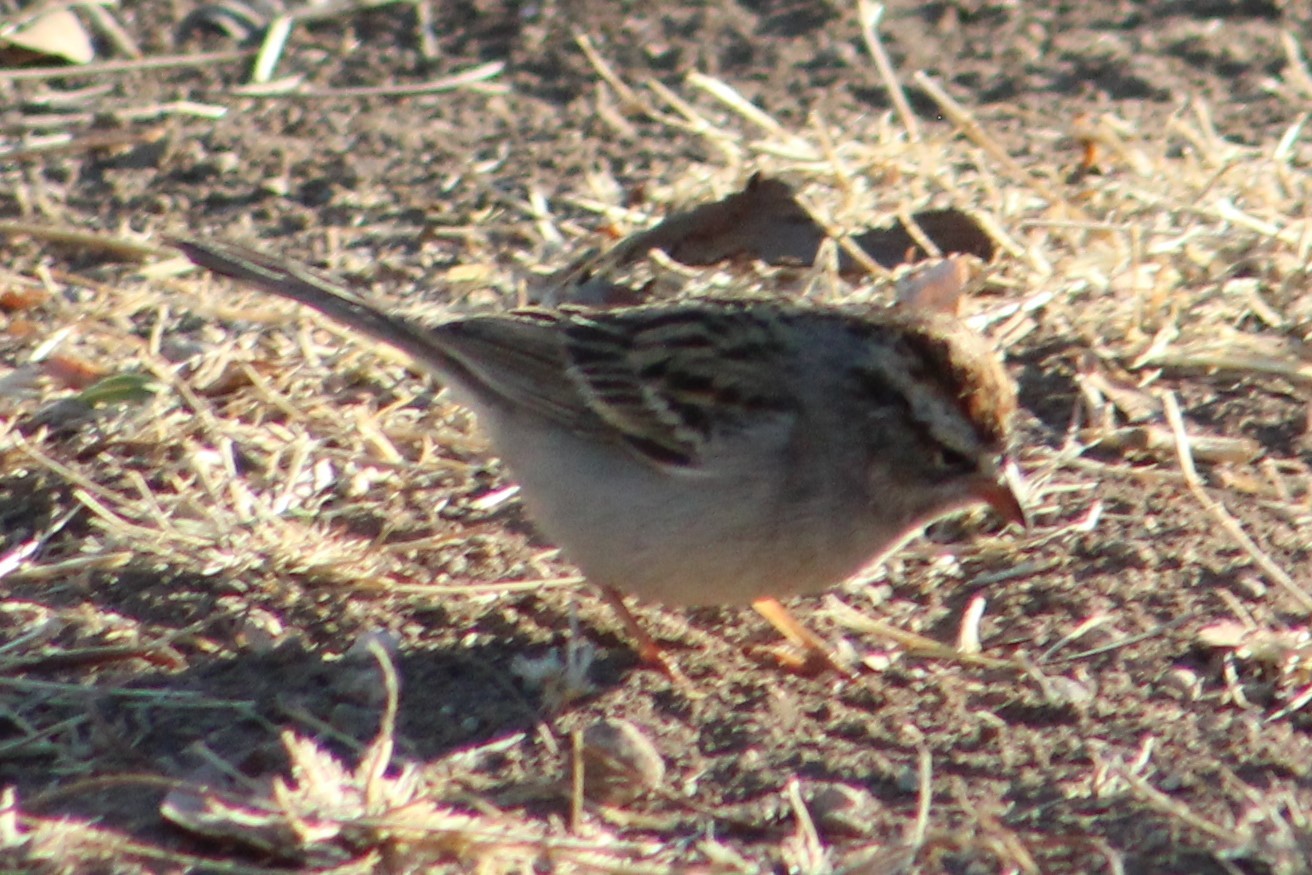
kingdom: Animalia
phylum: Chordata
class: Aves
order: Passeriformes
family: Passerellidae
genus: Spizella
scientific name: Spizella passerina
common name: Chipping sparrow
